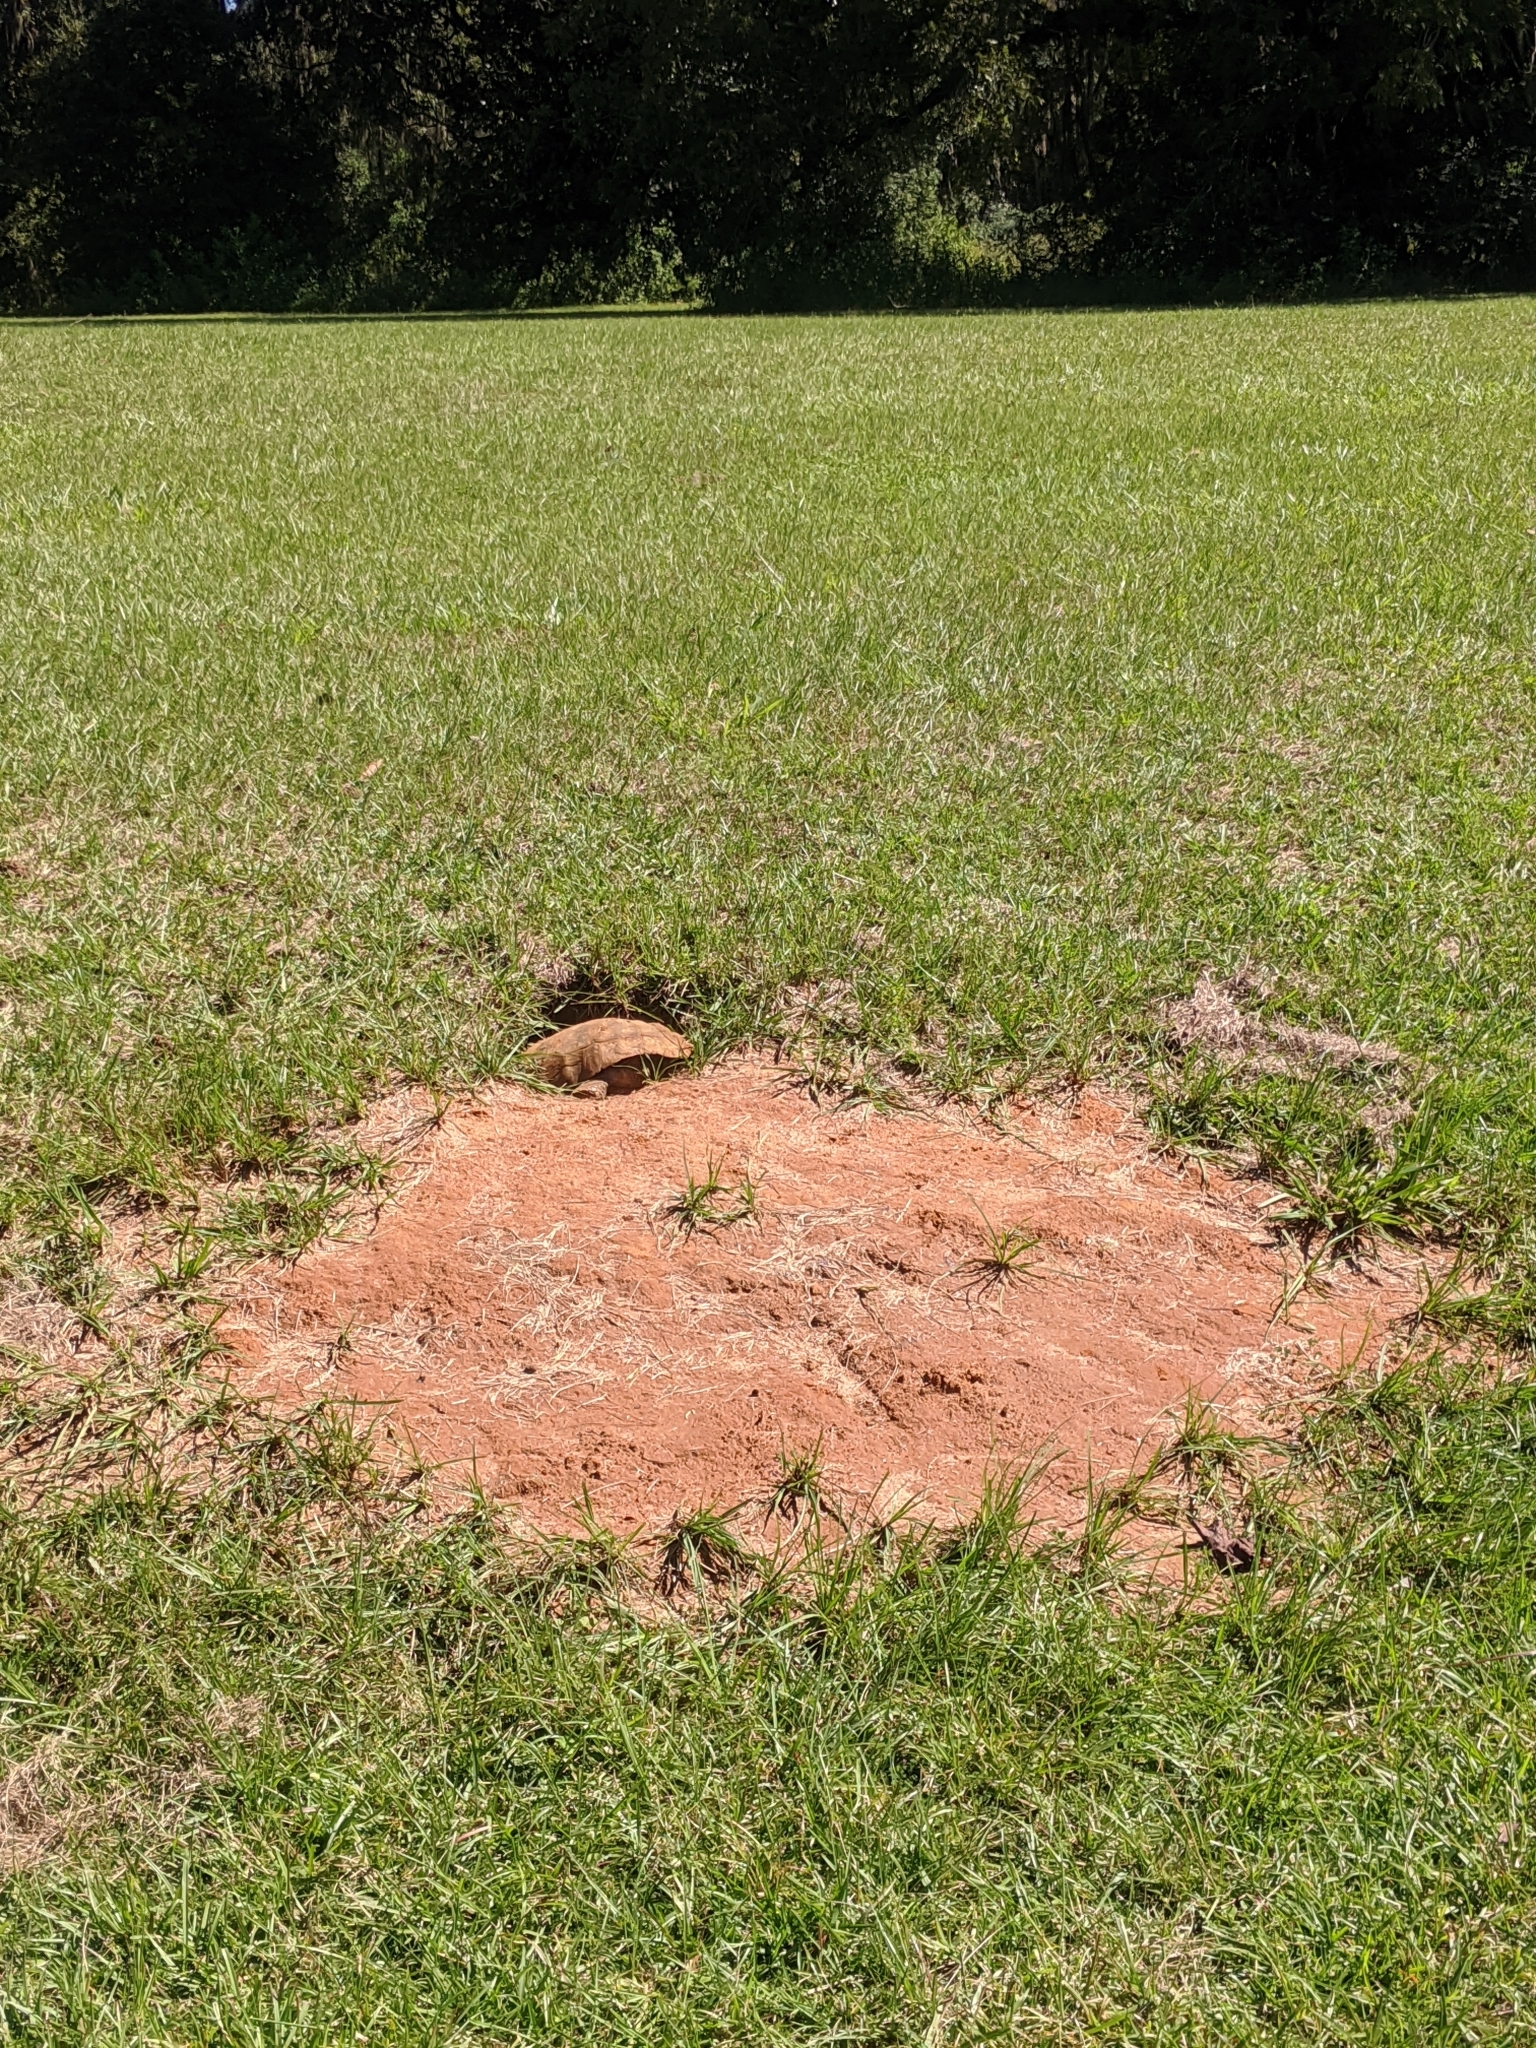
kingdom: Animalia
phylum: Chordata
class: Testudines
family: Testudinidae
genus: Gopherus
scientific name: Gopherus polyphemus
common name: Florida gopher tortoise
